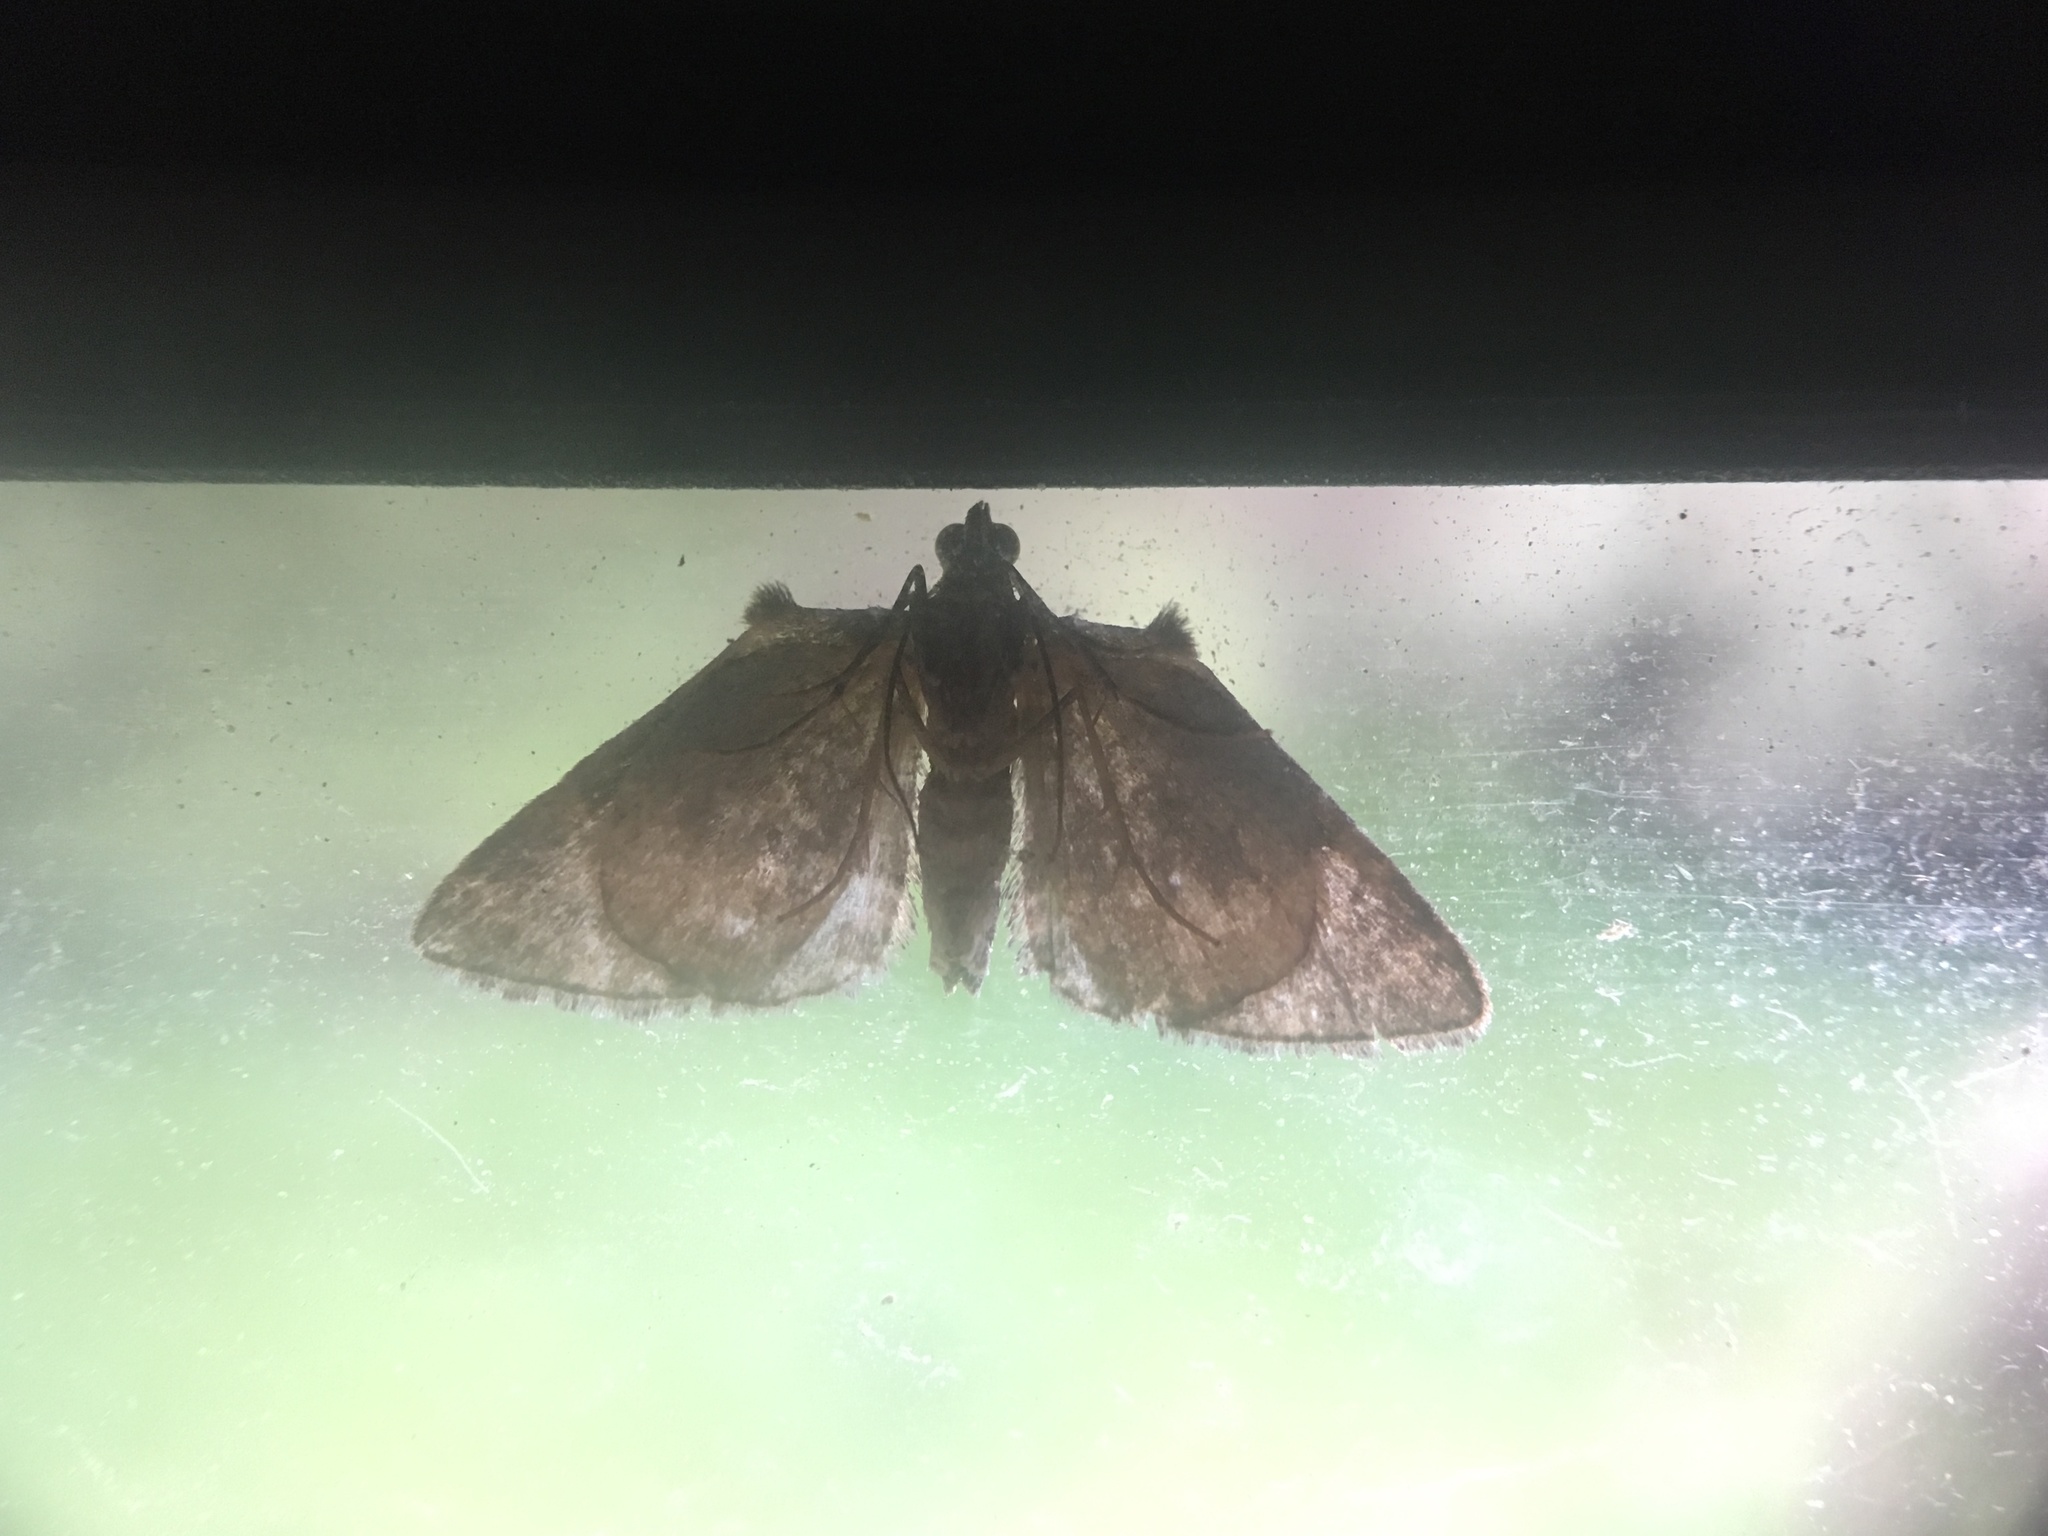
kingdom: Animalia
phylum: Arthropoda
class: Insecta
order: Lepidoptera
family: Geometridae
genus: Phrissogonus
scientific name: Phrissogonus laticostata
